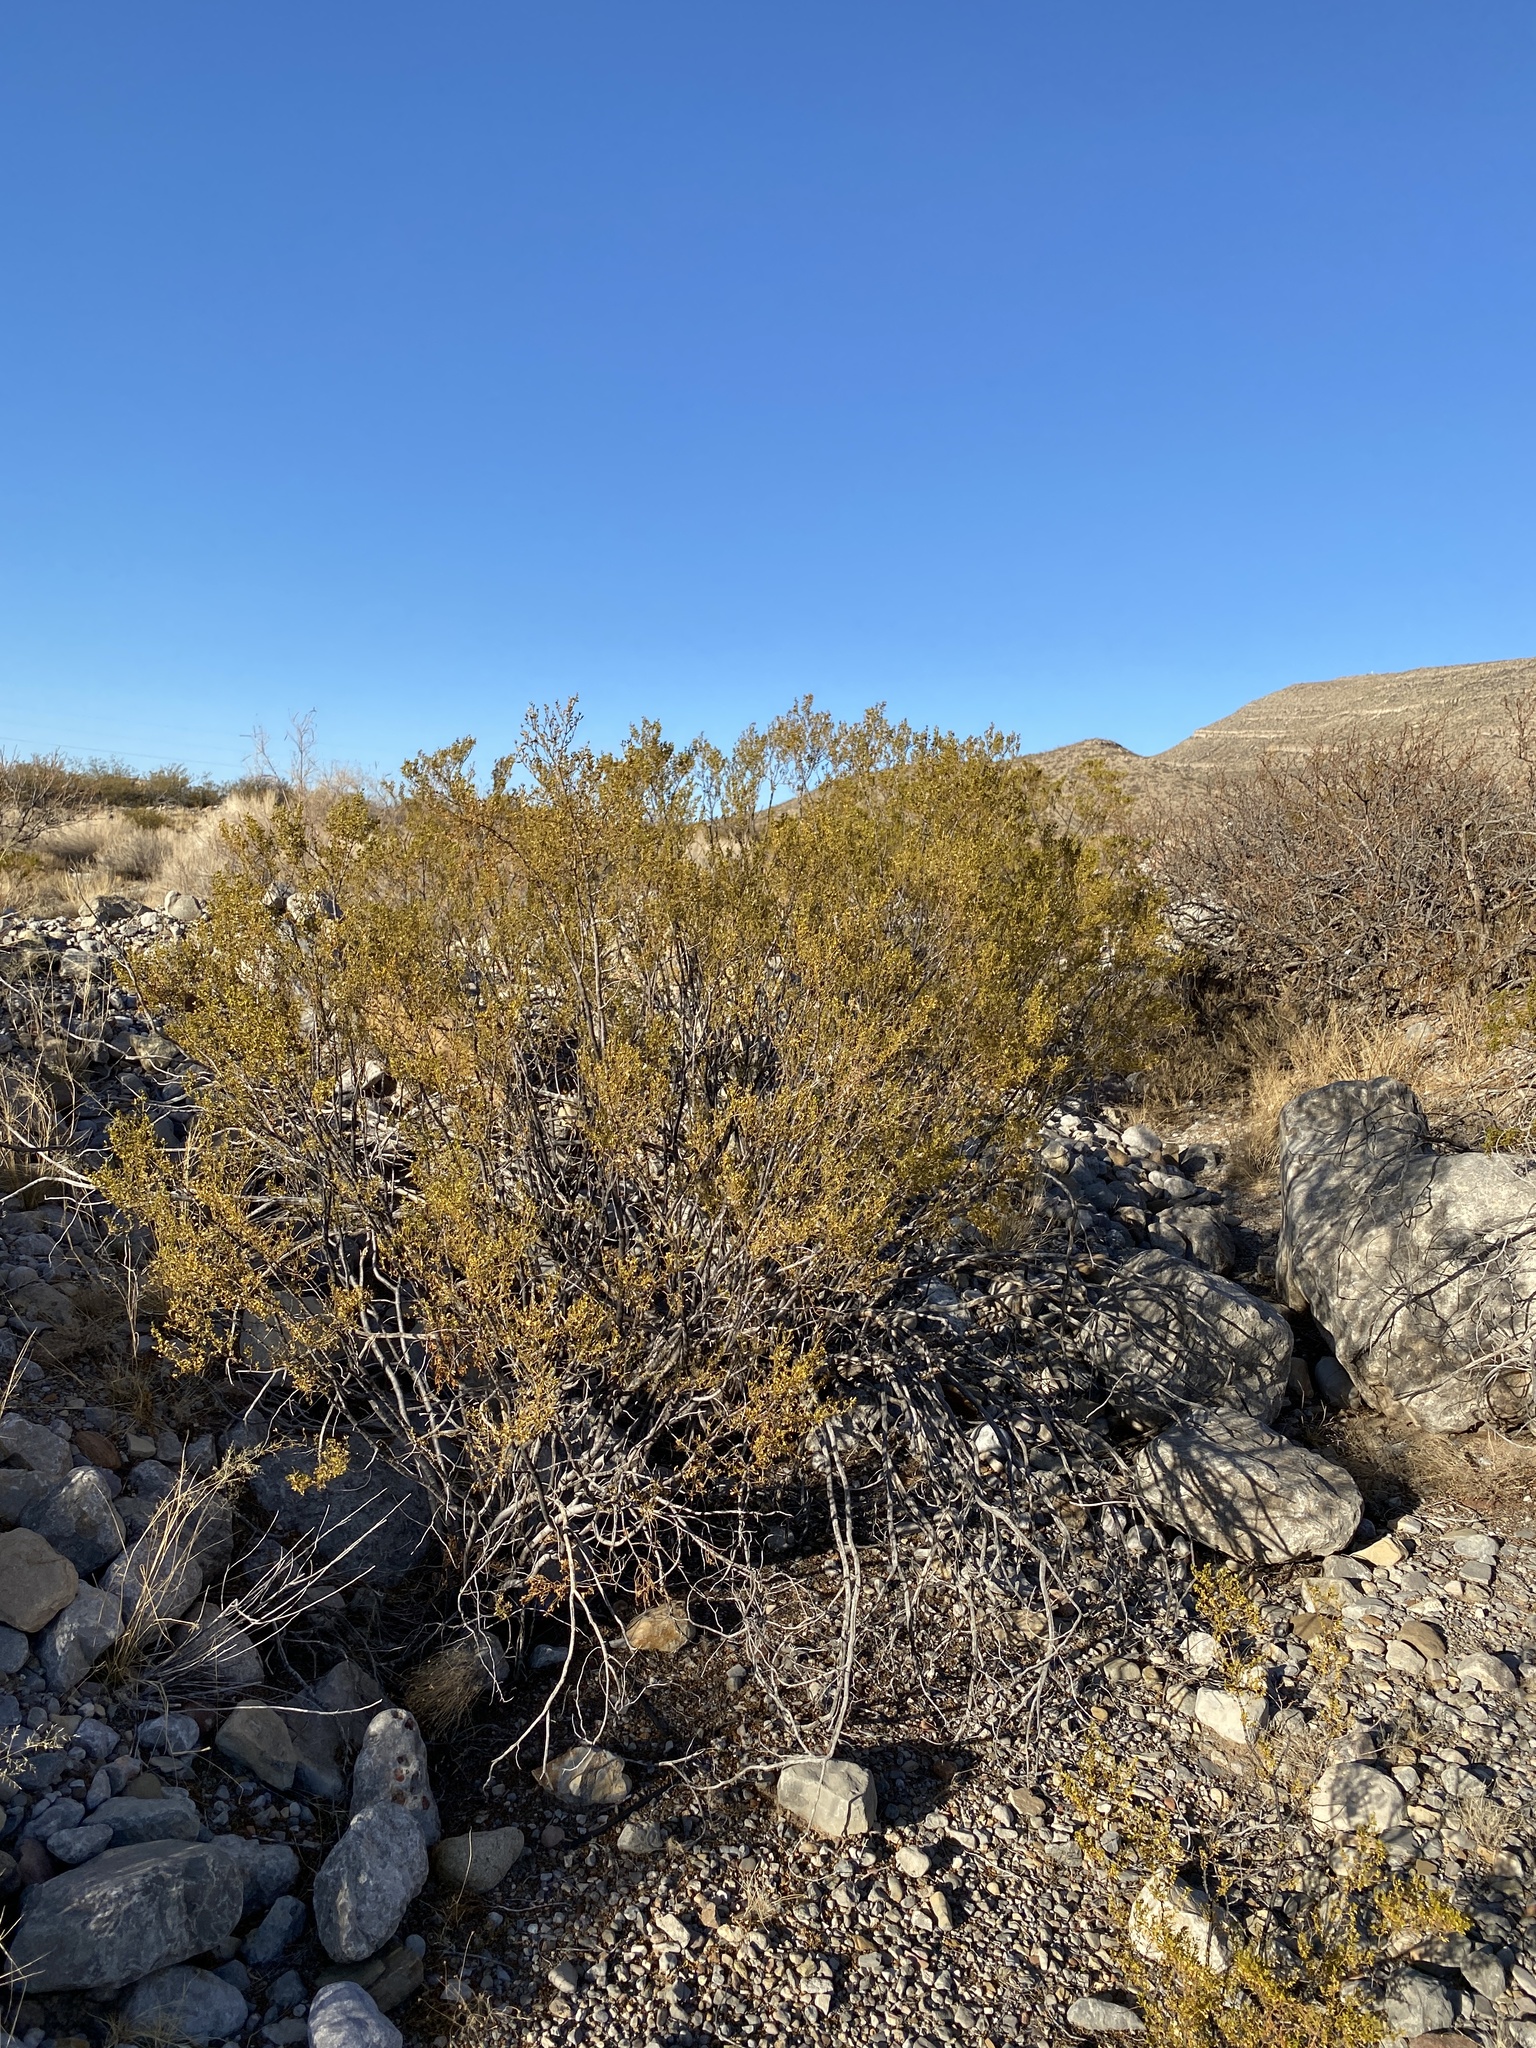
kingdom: Plantae
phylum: Tracheophyta
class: Magnoliopsida
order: Zygophyllales
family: Zygophyllaceae
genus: Larrea
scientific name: Larrea tridentata
